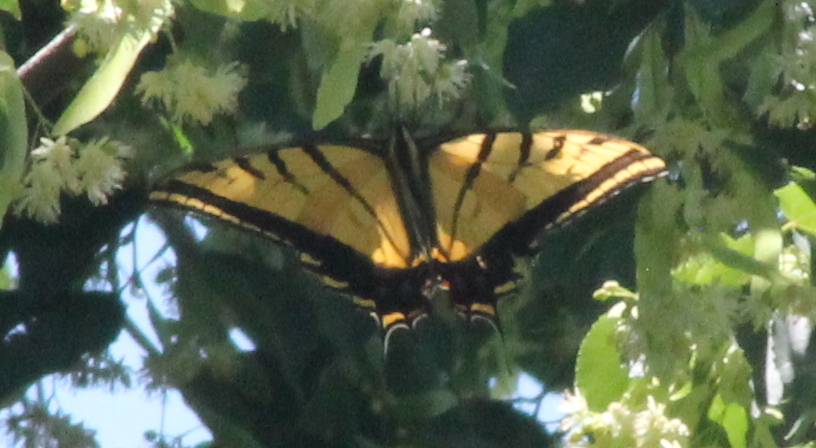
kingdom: Animalia
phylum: Arthropoda
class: Insecta
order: Lepidoptera
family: Papilionidae
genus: Papilio
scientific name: Papilio multicaudata
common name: Two-tailed tiger swallowtail
